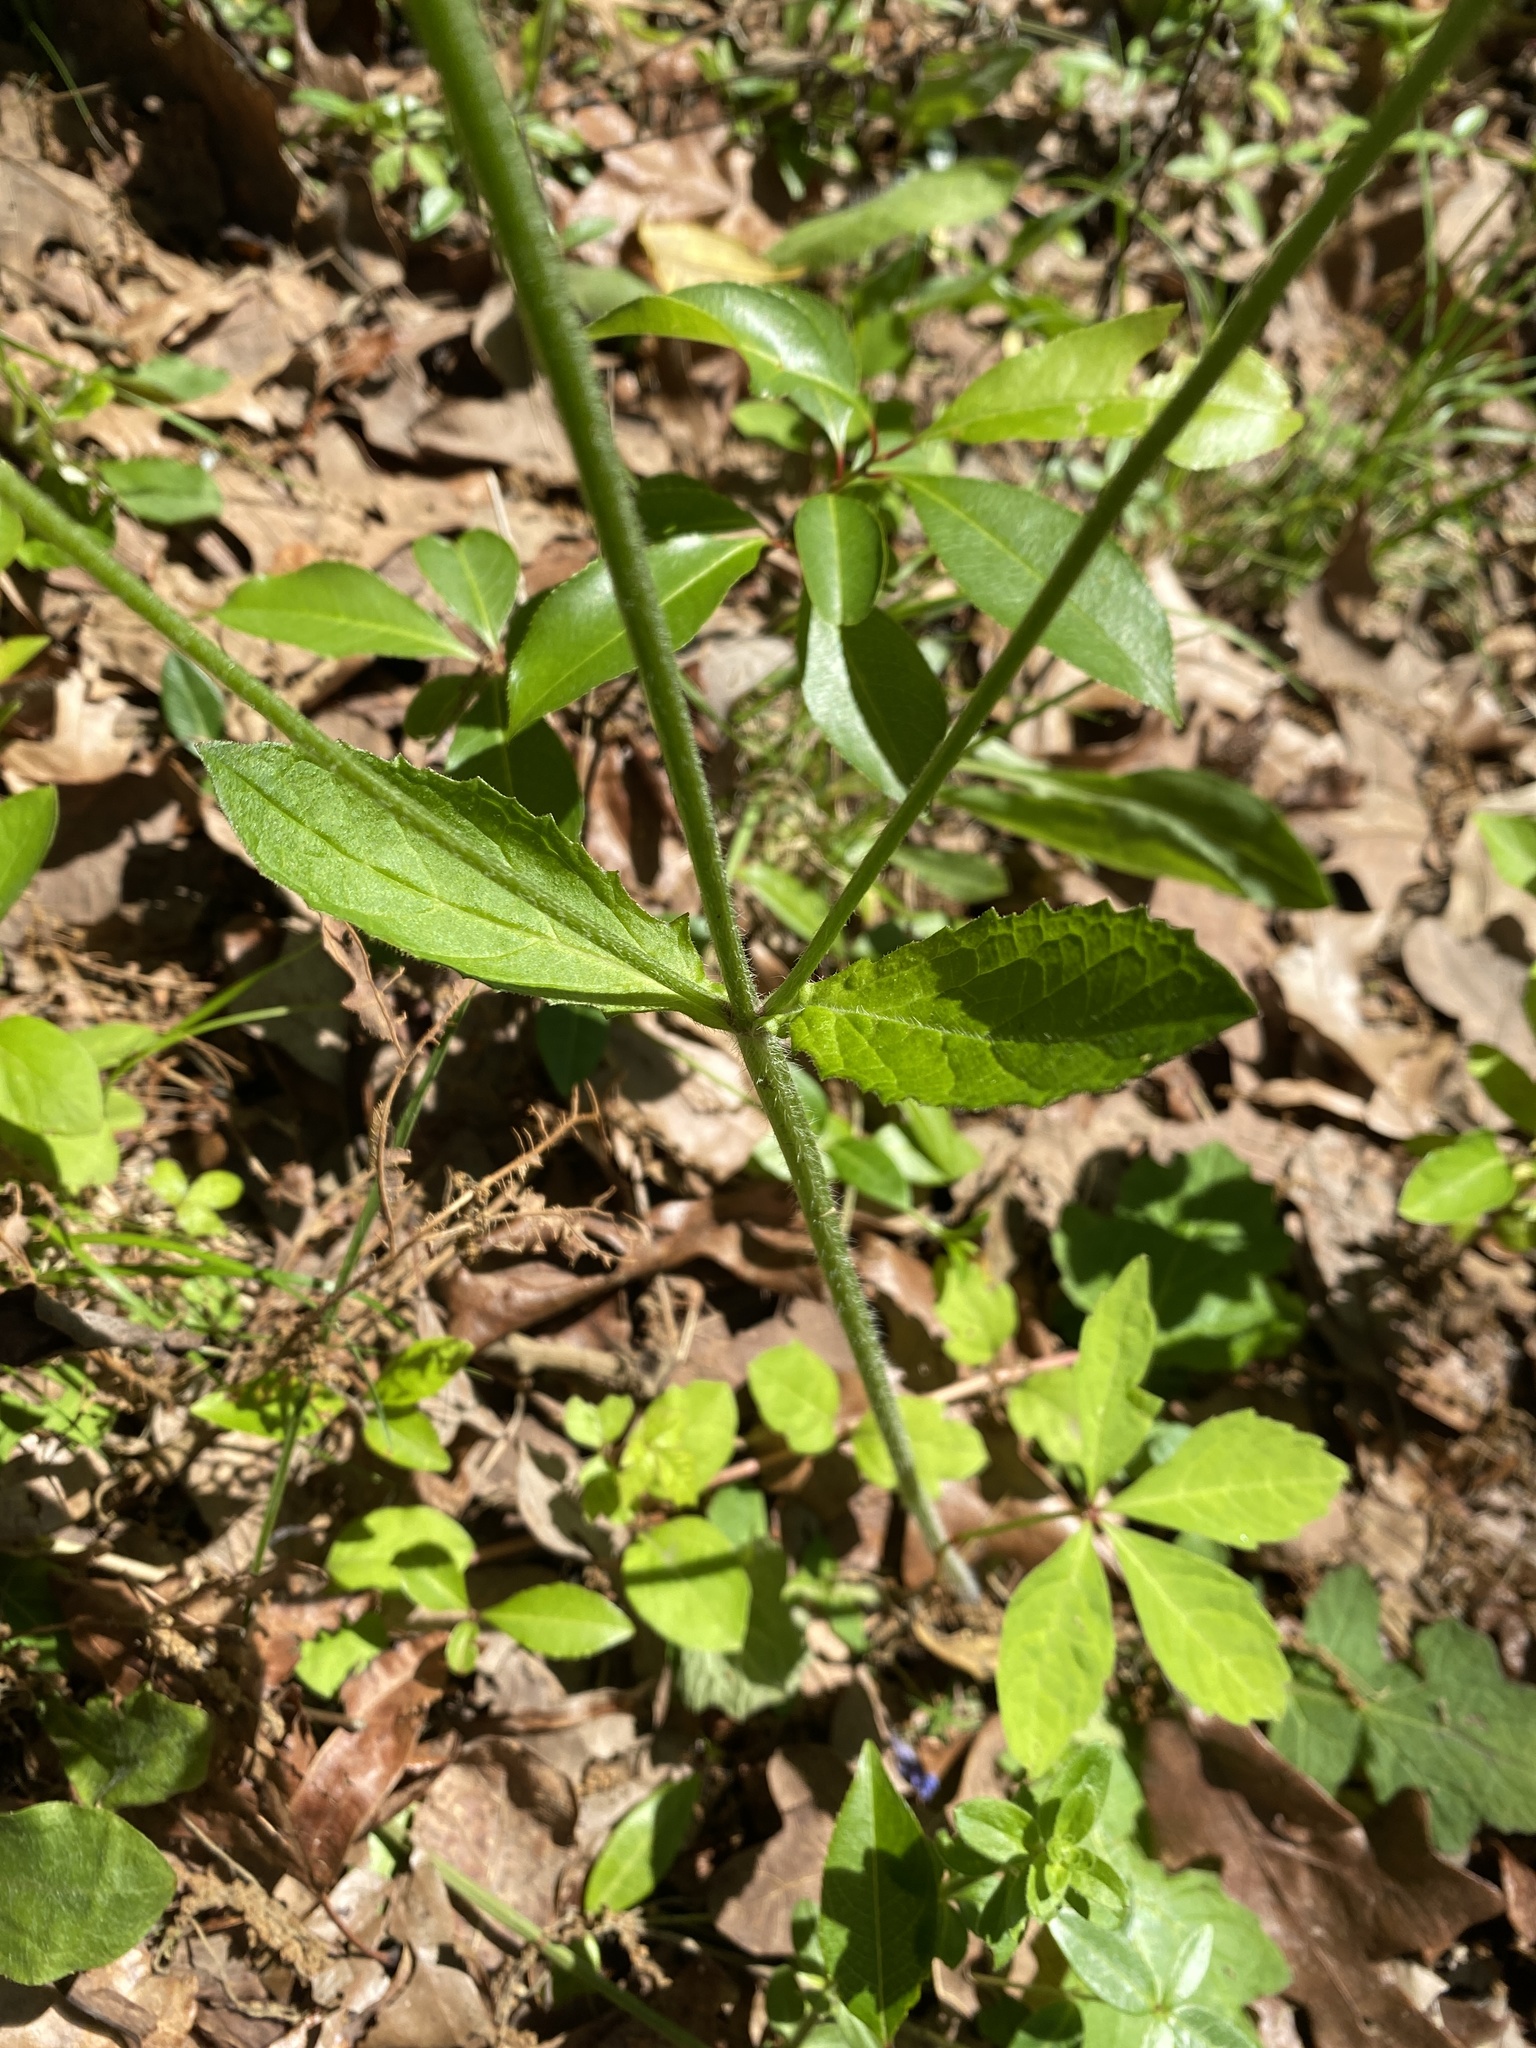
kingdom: Plantae
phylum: Tracheophyta
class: Magnoliopsida
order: Lamiales
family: Lamiaceae
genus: Salvia
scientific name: Salvia lyrata
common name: Cancerweed
